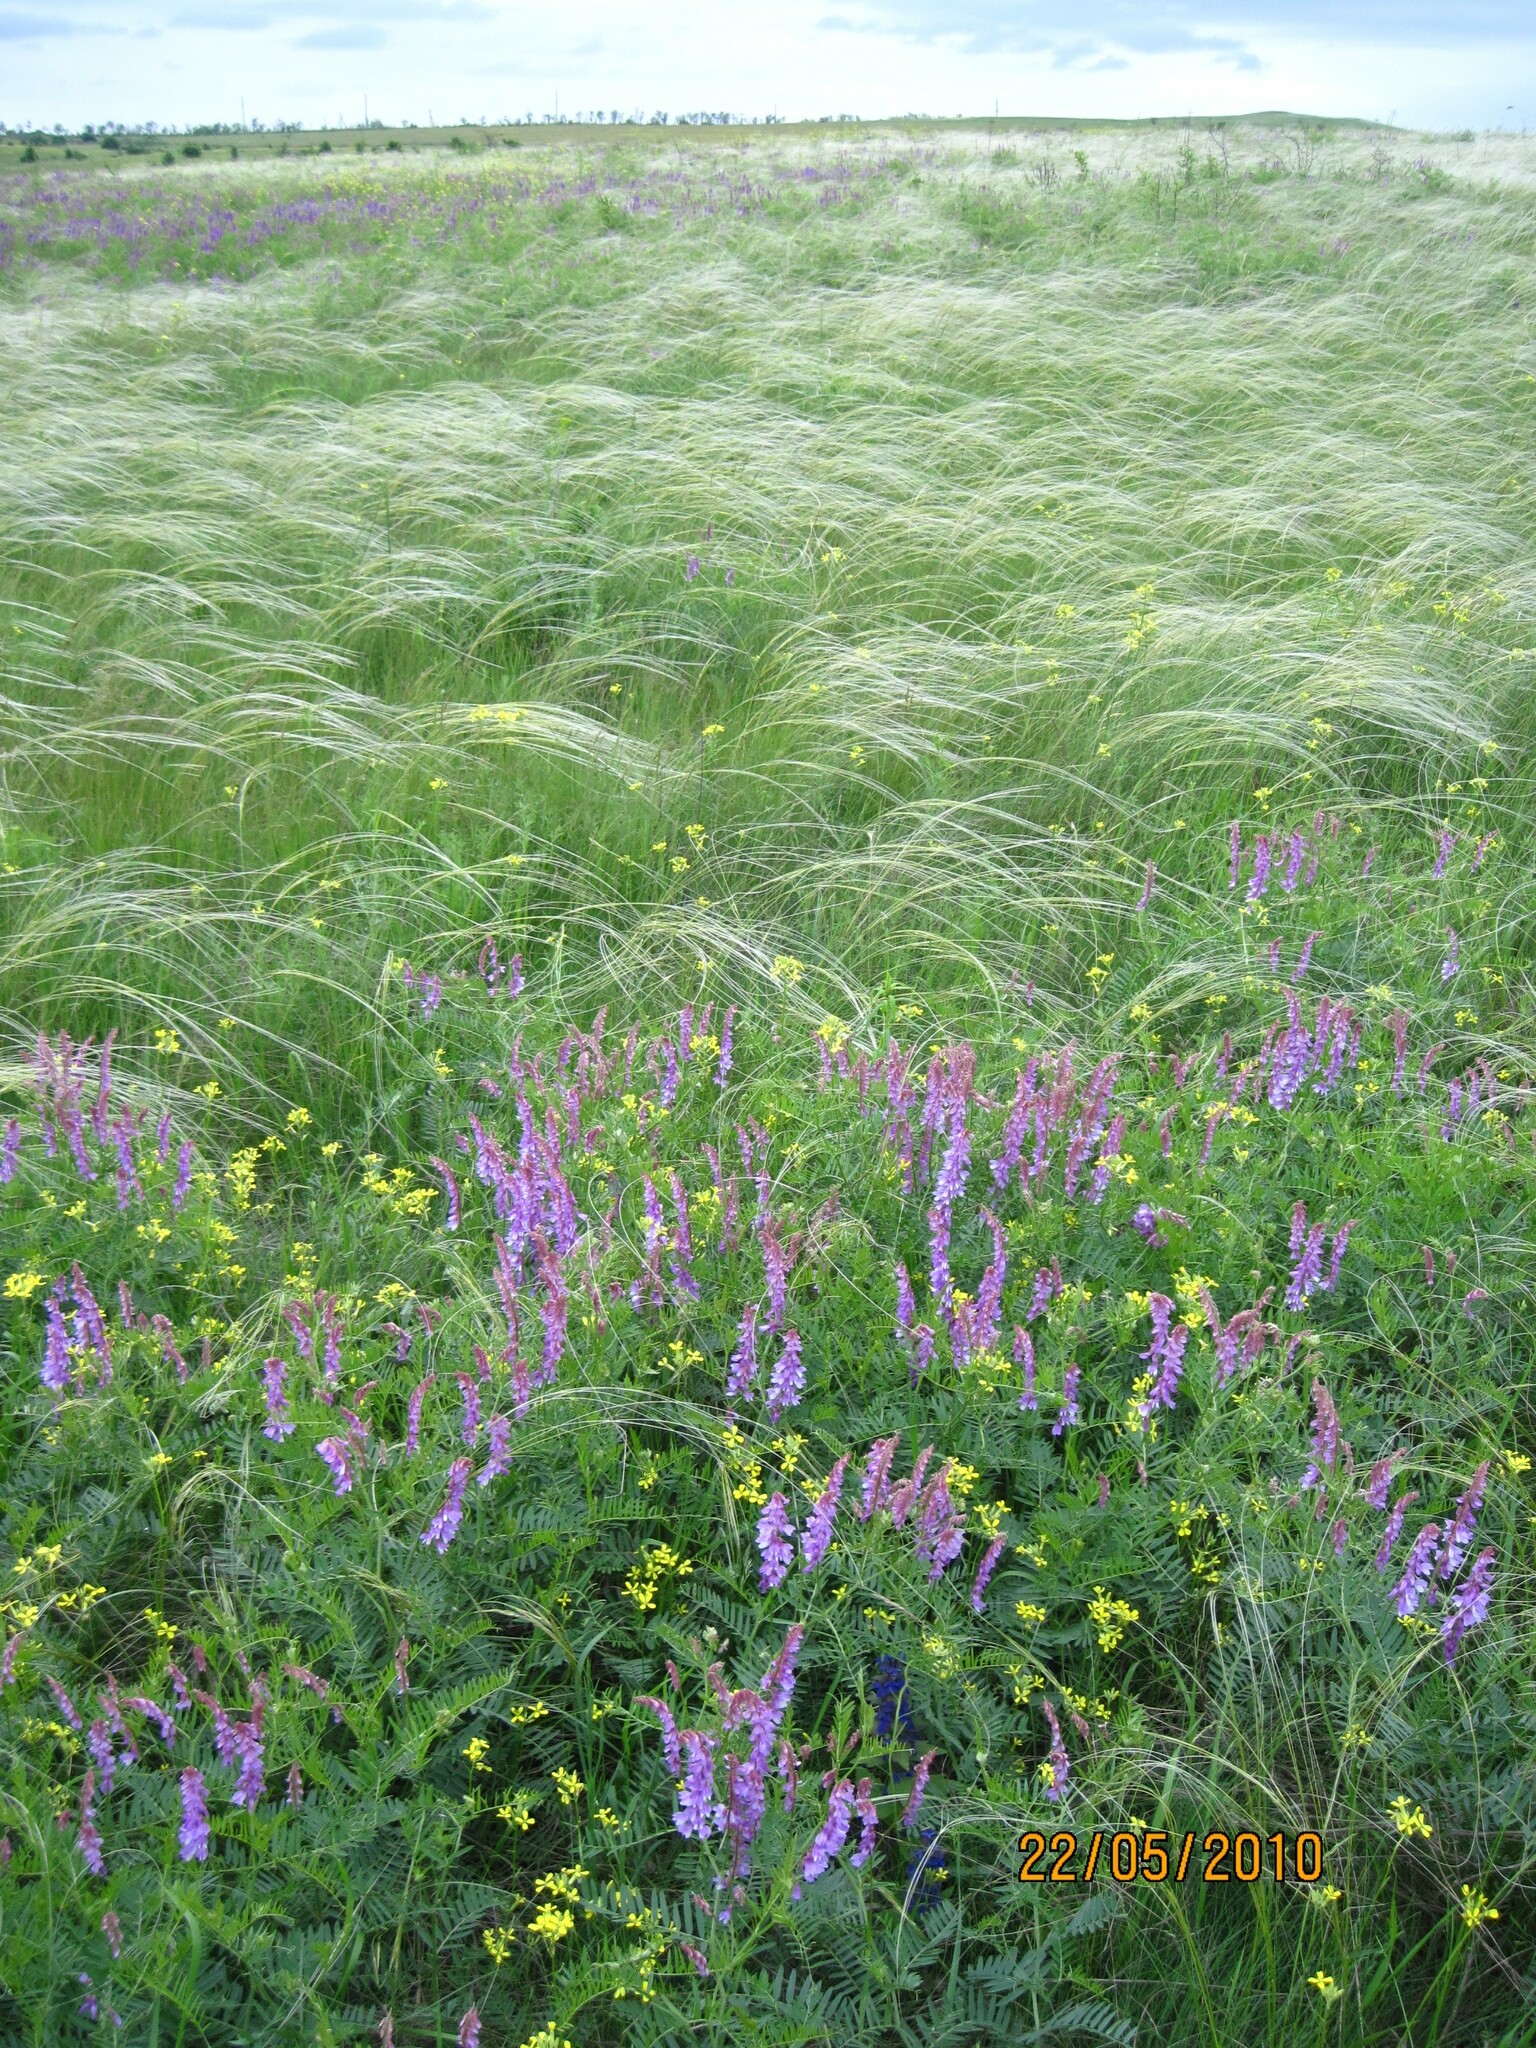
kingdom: Plantae
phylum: Tracheophyta
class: Magnoliopsida
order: Fabales
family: Fabaceae
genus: Vicia
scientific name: Vicia tenuifolia
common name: Fine-leaved vetch
